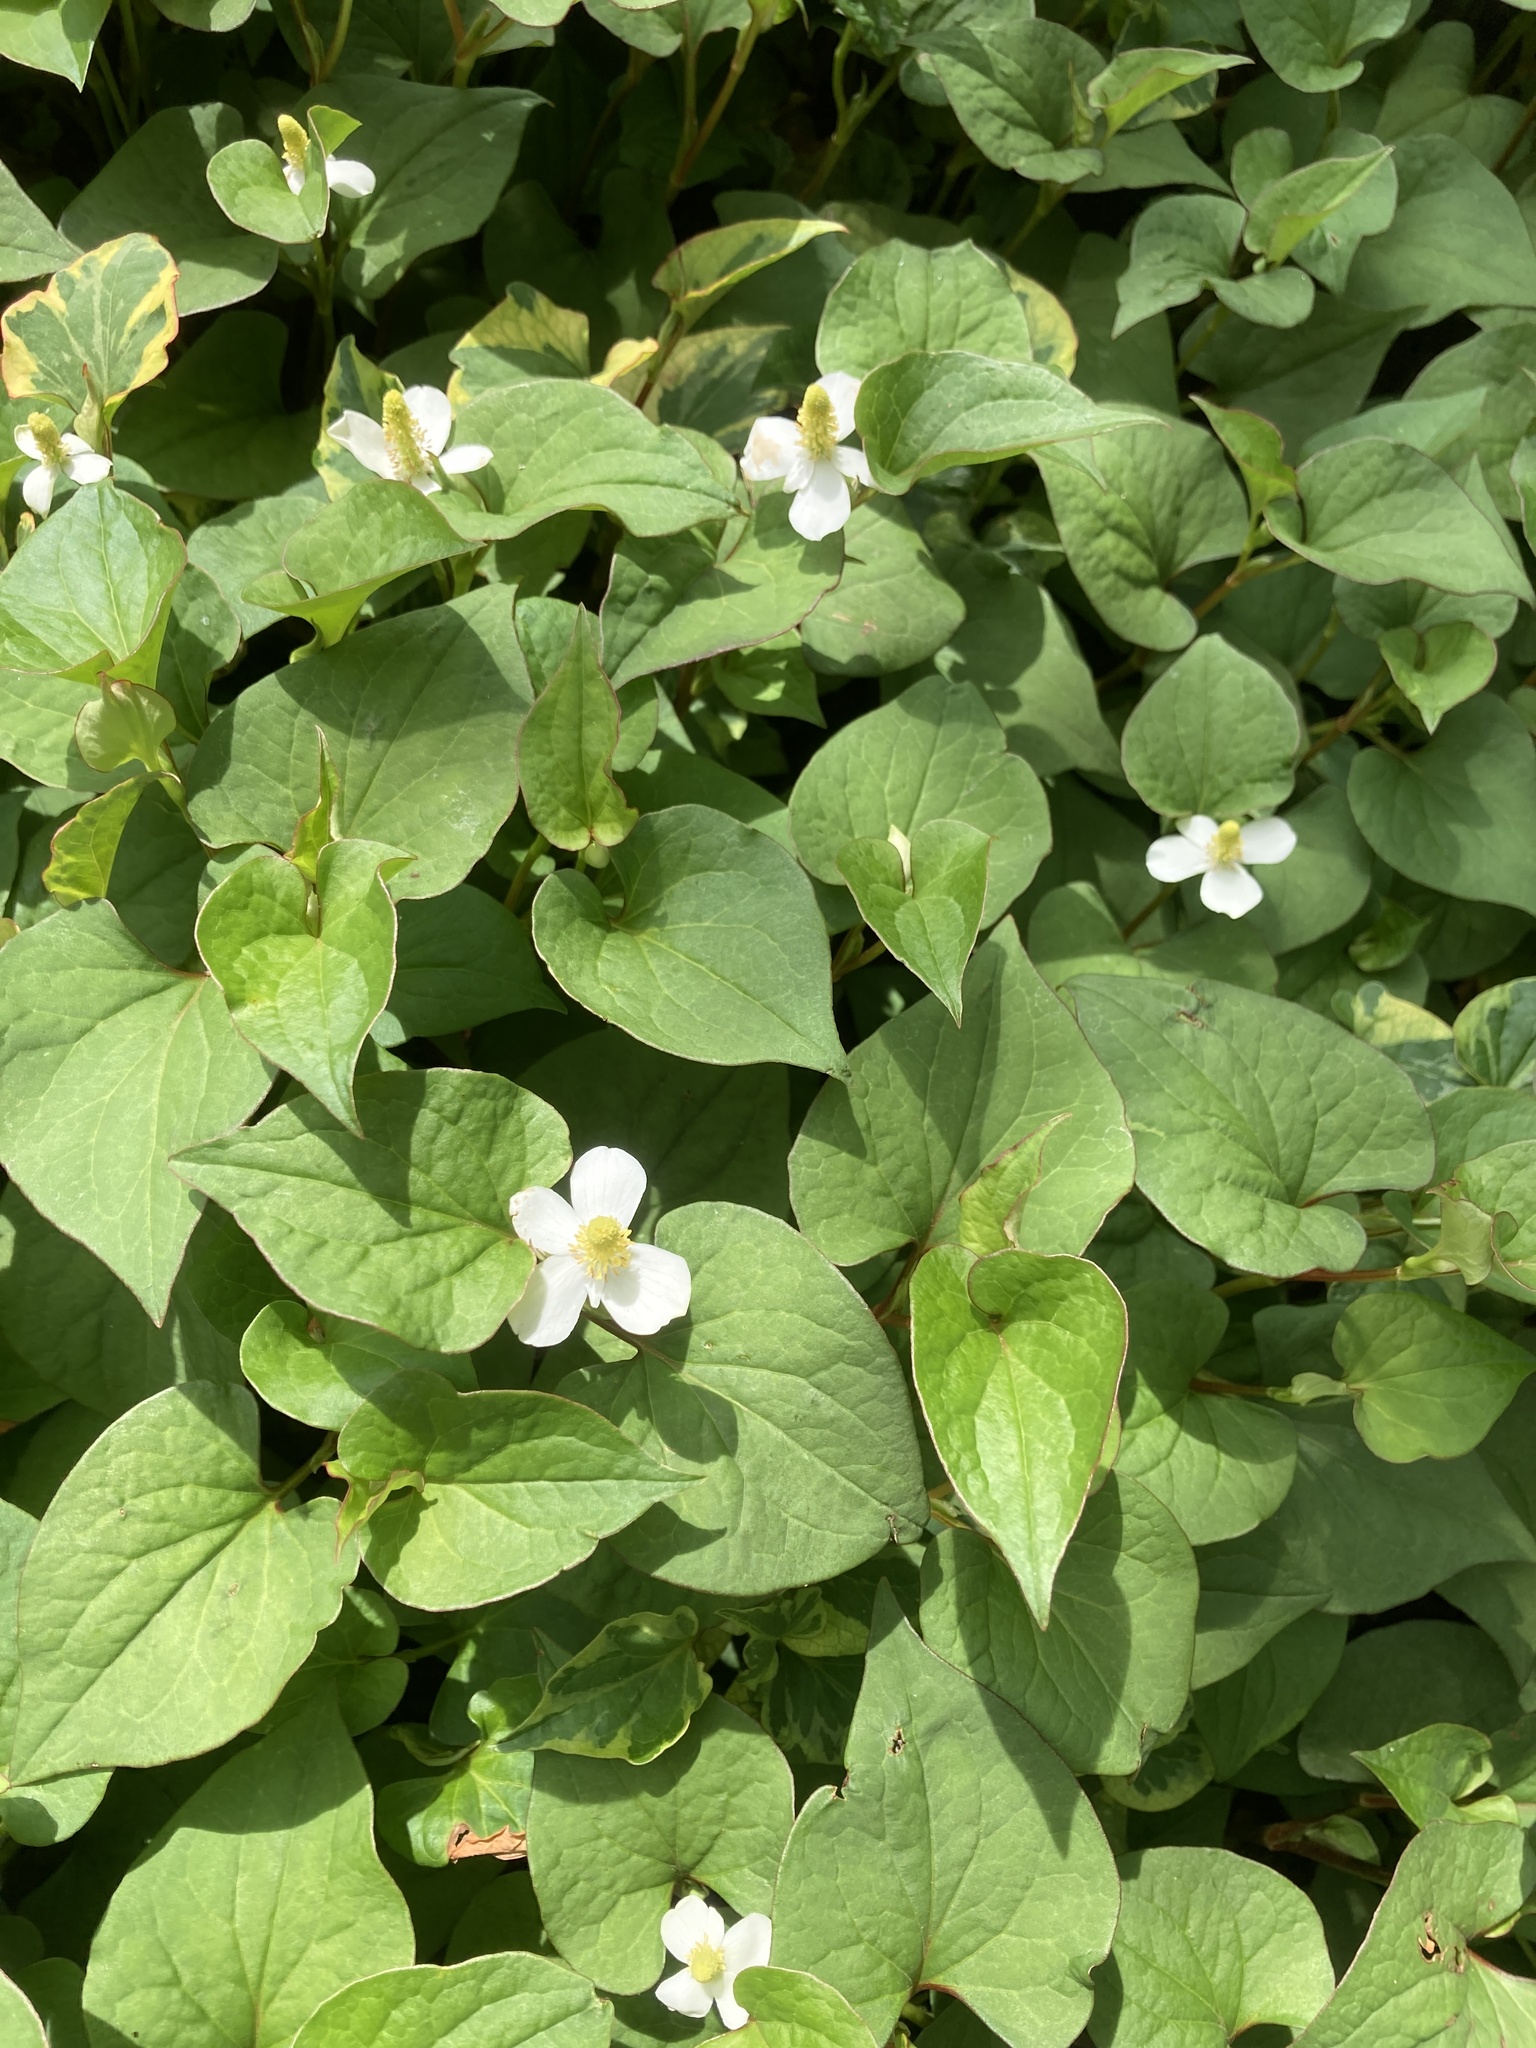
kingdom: Plantae
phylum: Tracheophyta
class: Magnoliopsida
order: Piperales
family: Saururaceae
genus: Houttuynia
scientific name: Houttuynia cordata
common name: Chameleon
